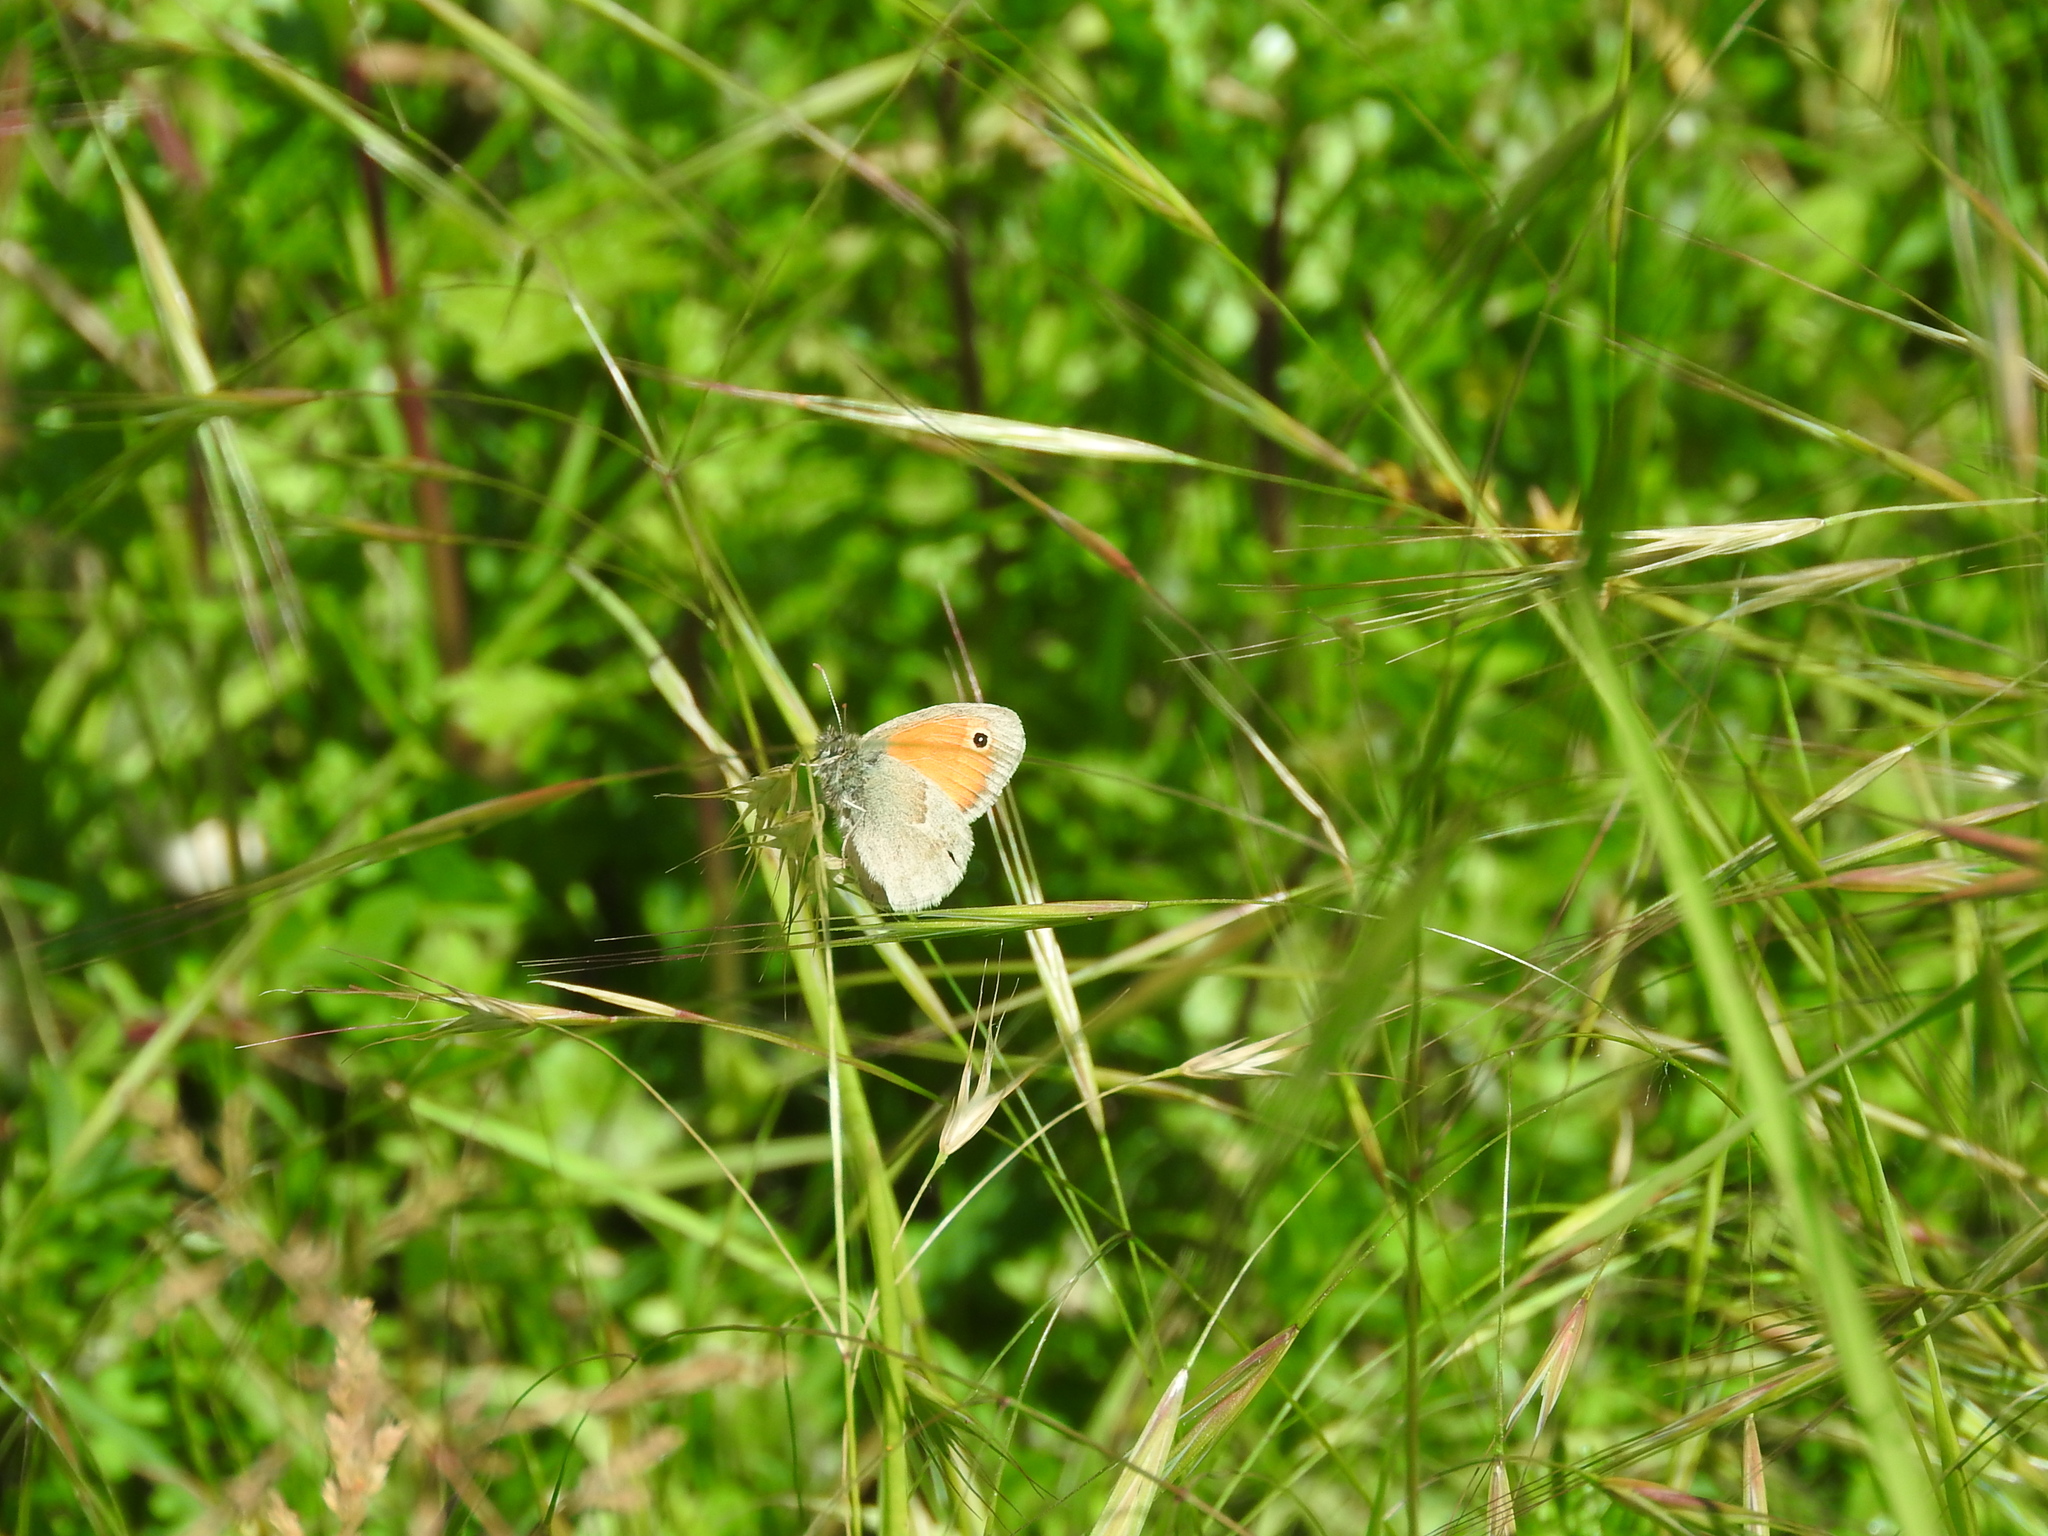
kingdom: Animalia
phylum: Arthropoda
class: Insecta
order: Lepidoptera
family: Nymphalidae
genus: Coenonympha
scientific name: Coenonympha pamphilus
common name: Small heath
